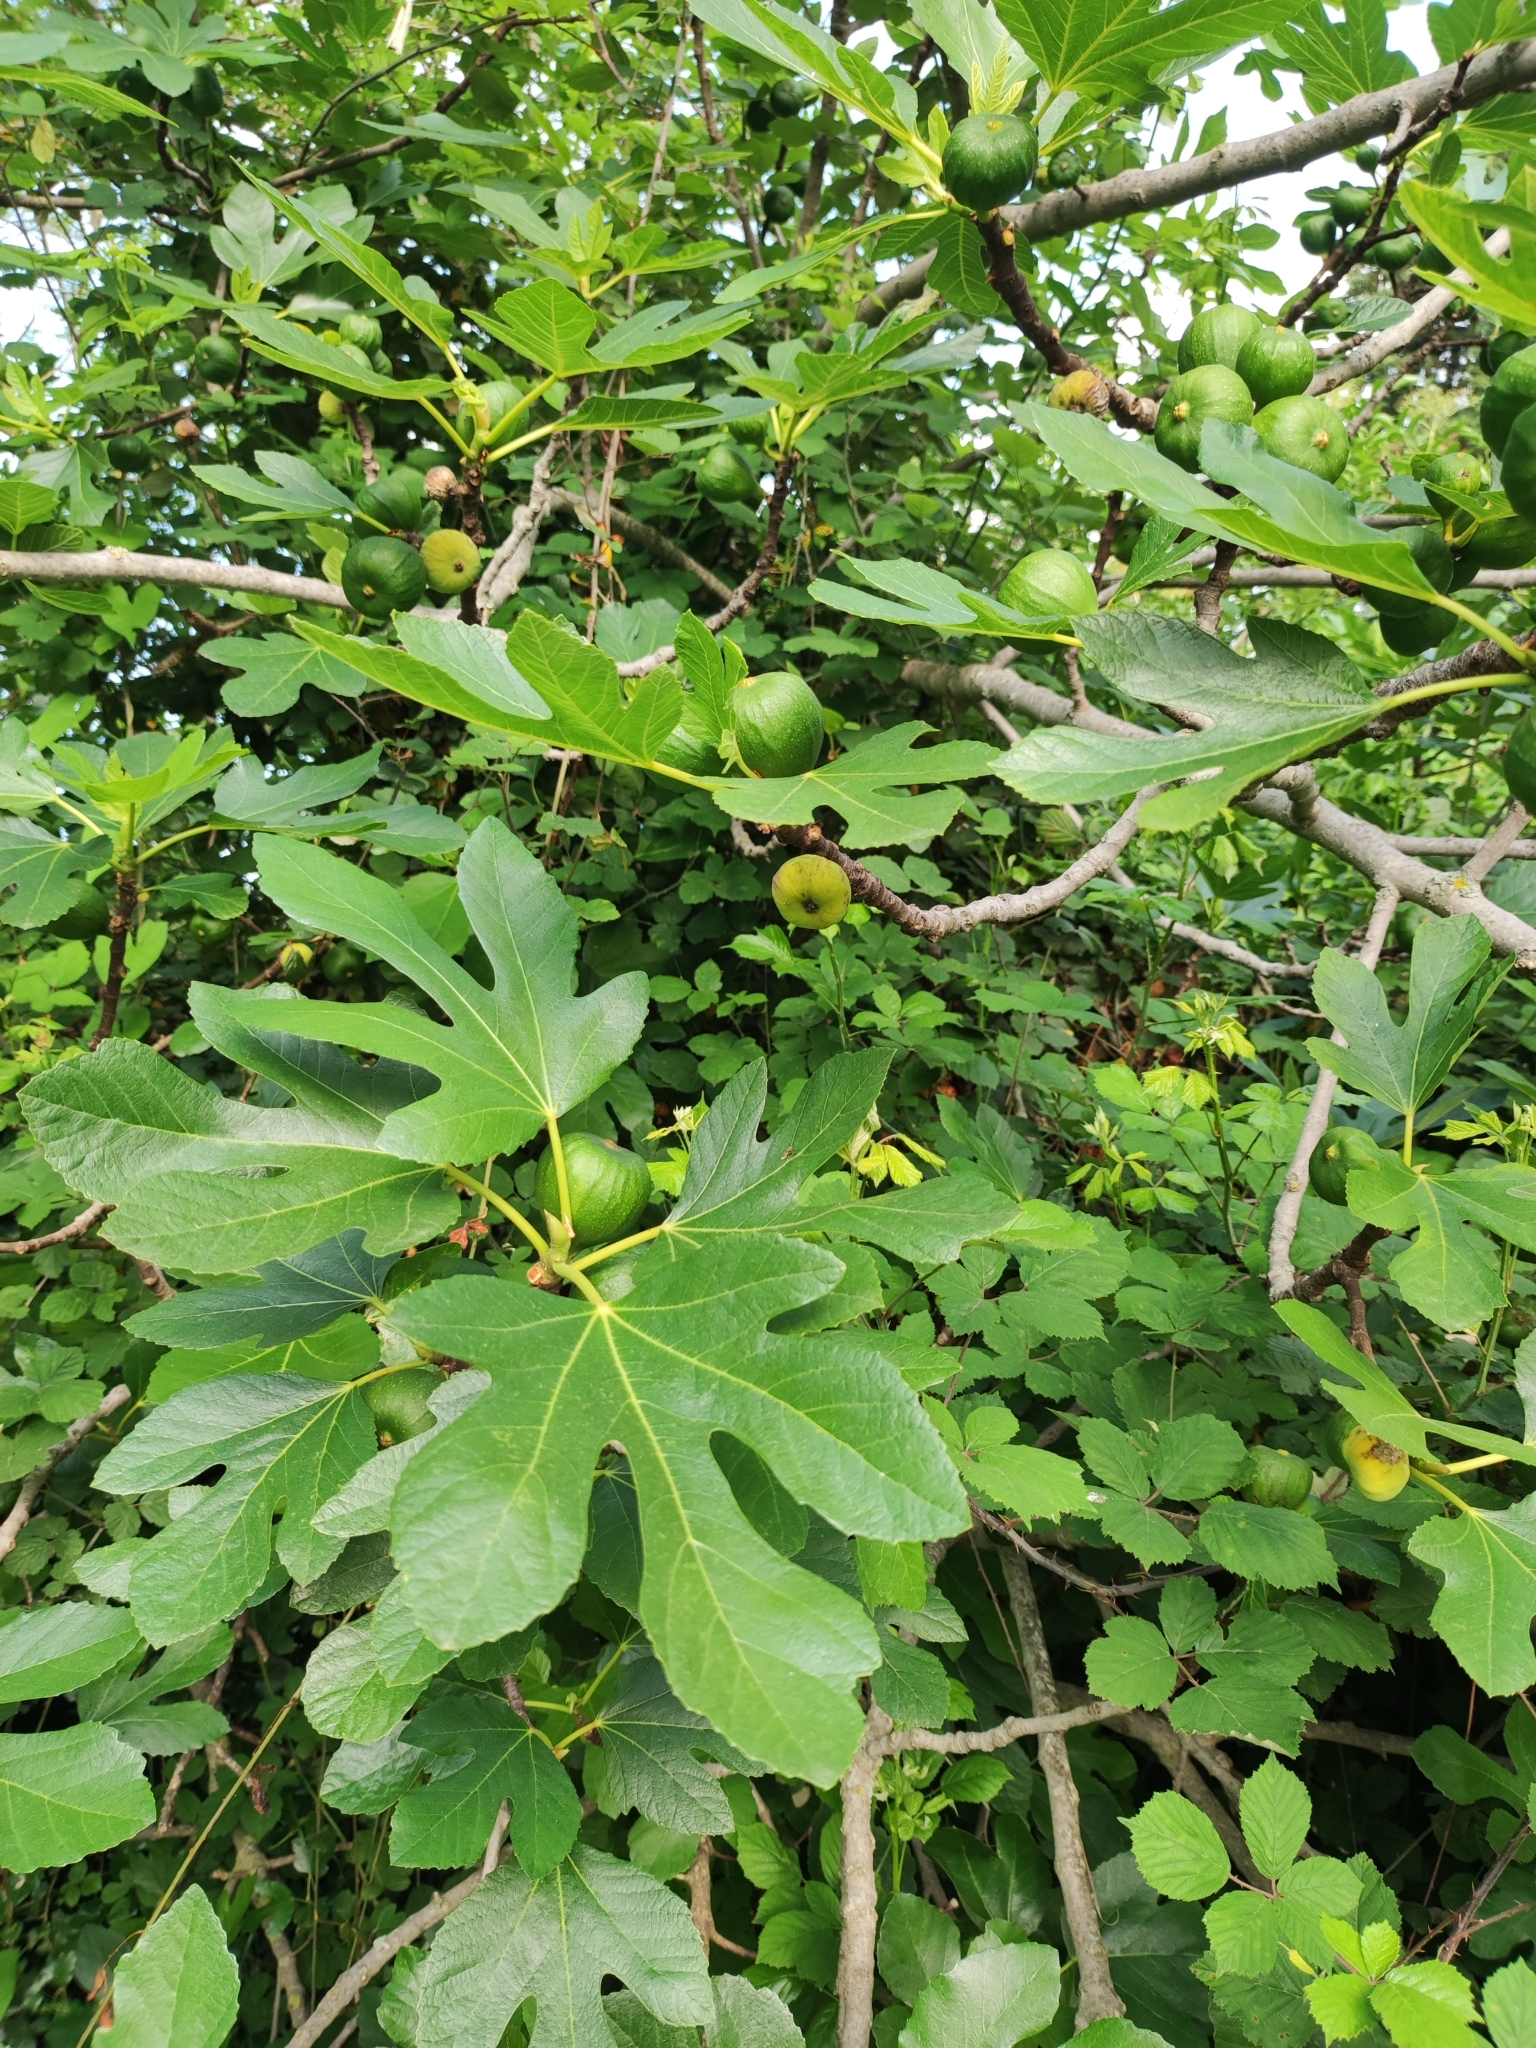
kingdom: Plantae
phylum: Tracheophyta
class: Magnoliopsida
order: Rosales
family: Moraceae
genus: Ficus
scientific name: Ficus carica
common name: Fig
